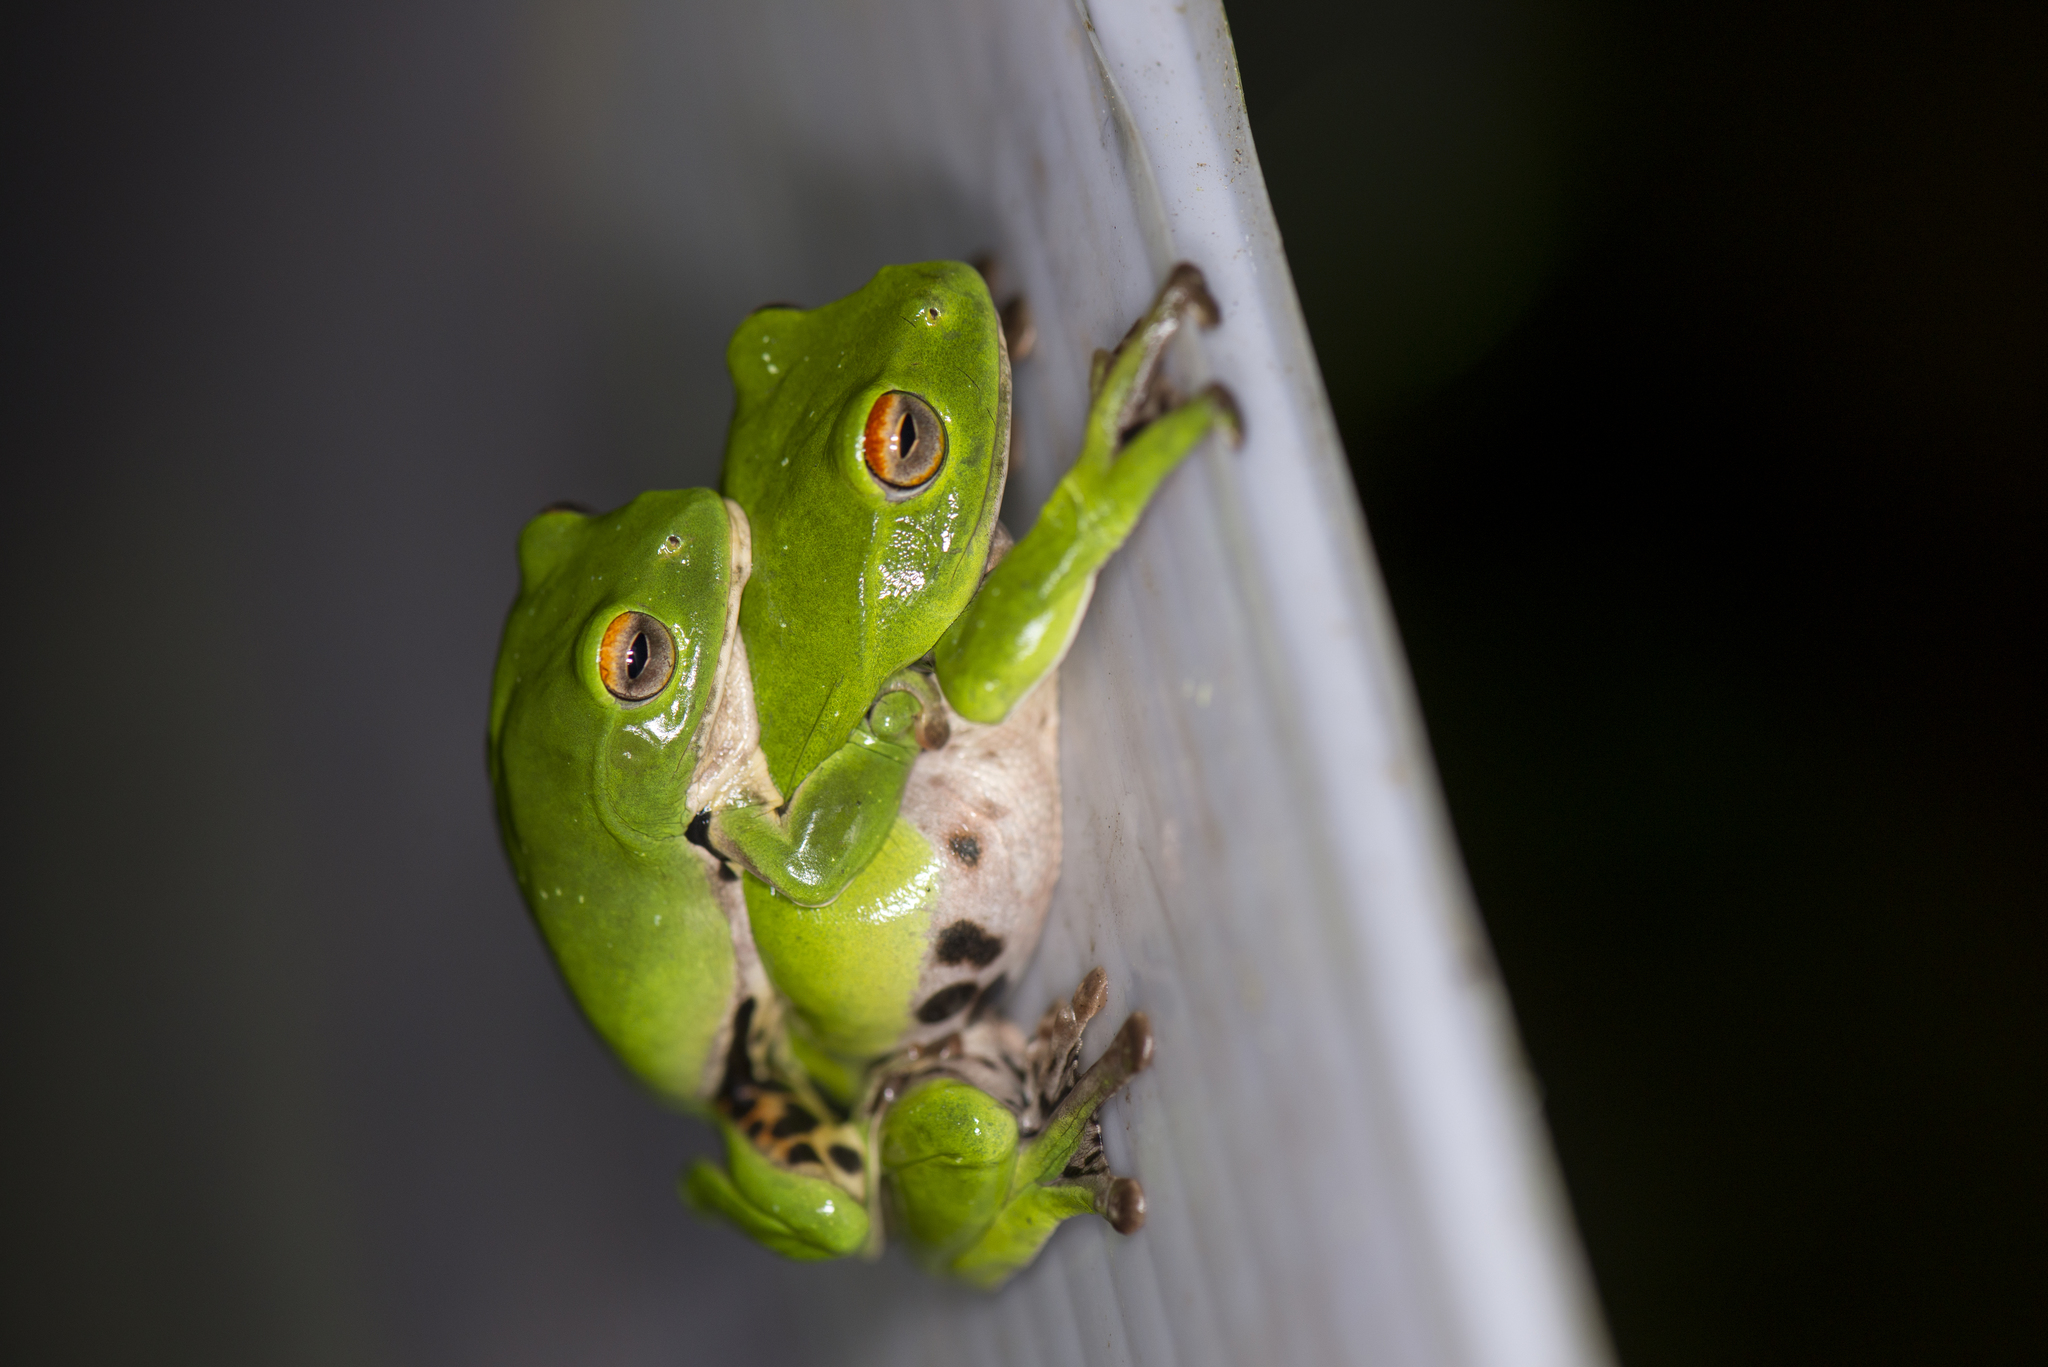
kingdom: Animalia
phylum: Chordata
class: Amphibia
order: Anura
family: Rhacophoridae
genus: Zhangixalus
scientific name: Zhangixalus moltrechti
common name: Moltrecht's treefrog
